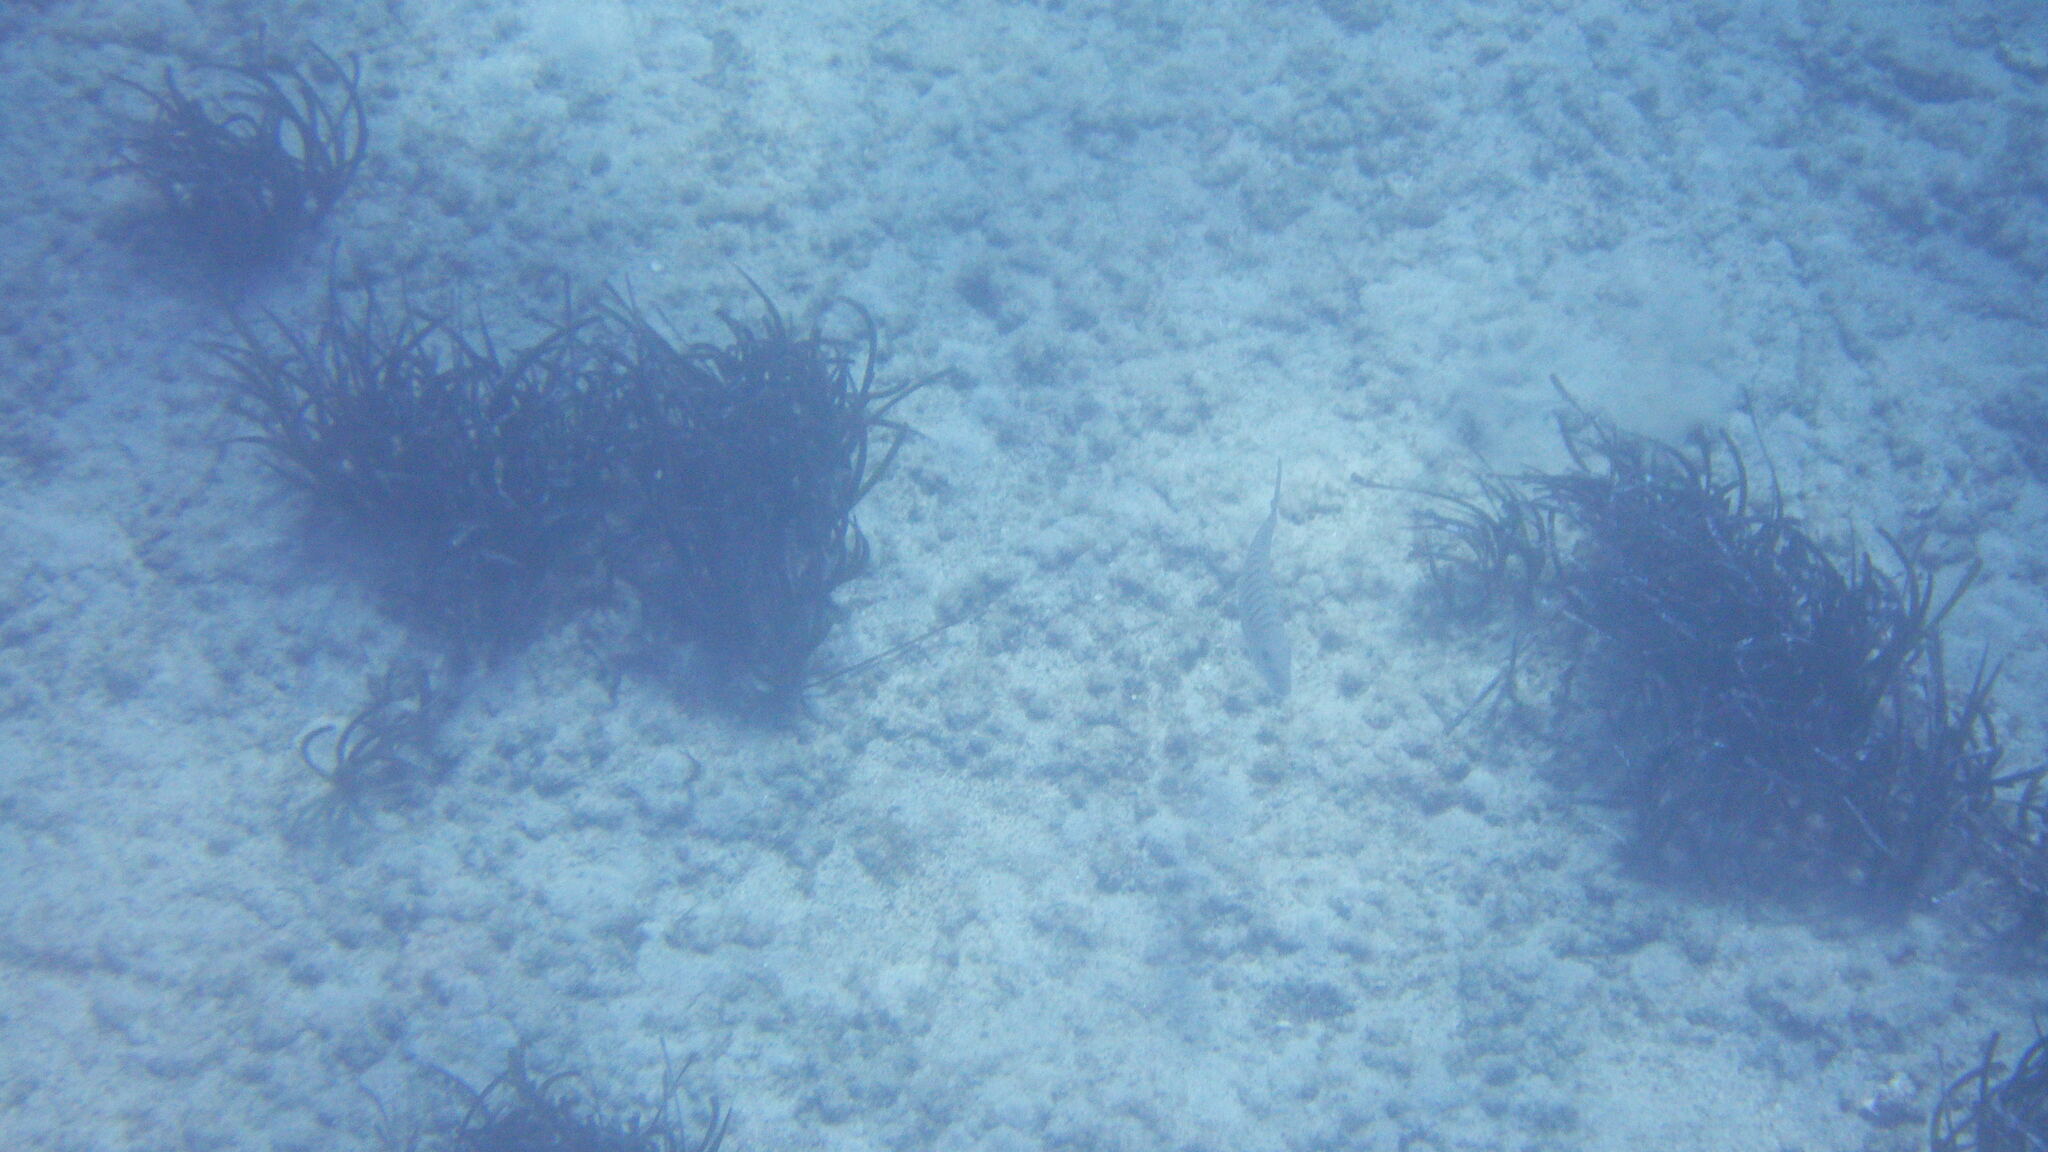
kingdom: Animalia
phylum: Chordata
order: Perciformes
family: Sparidae
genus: Lithognathus
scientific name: Lithognathus mormyrus
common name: Sand steenbras
